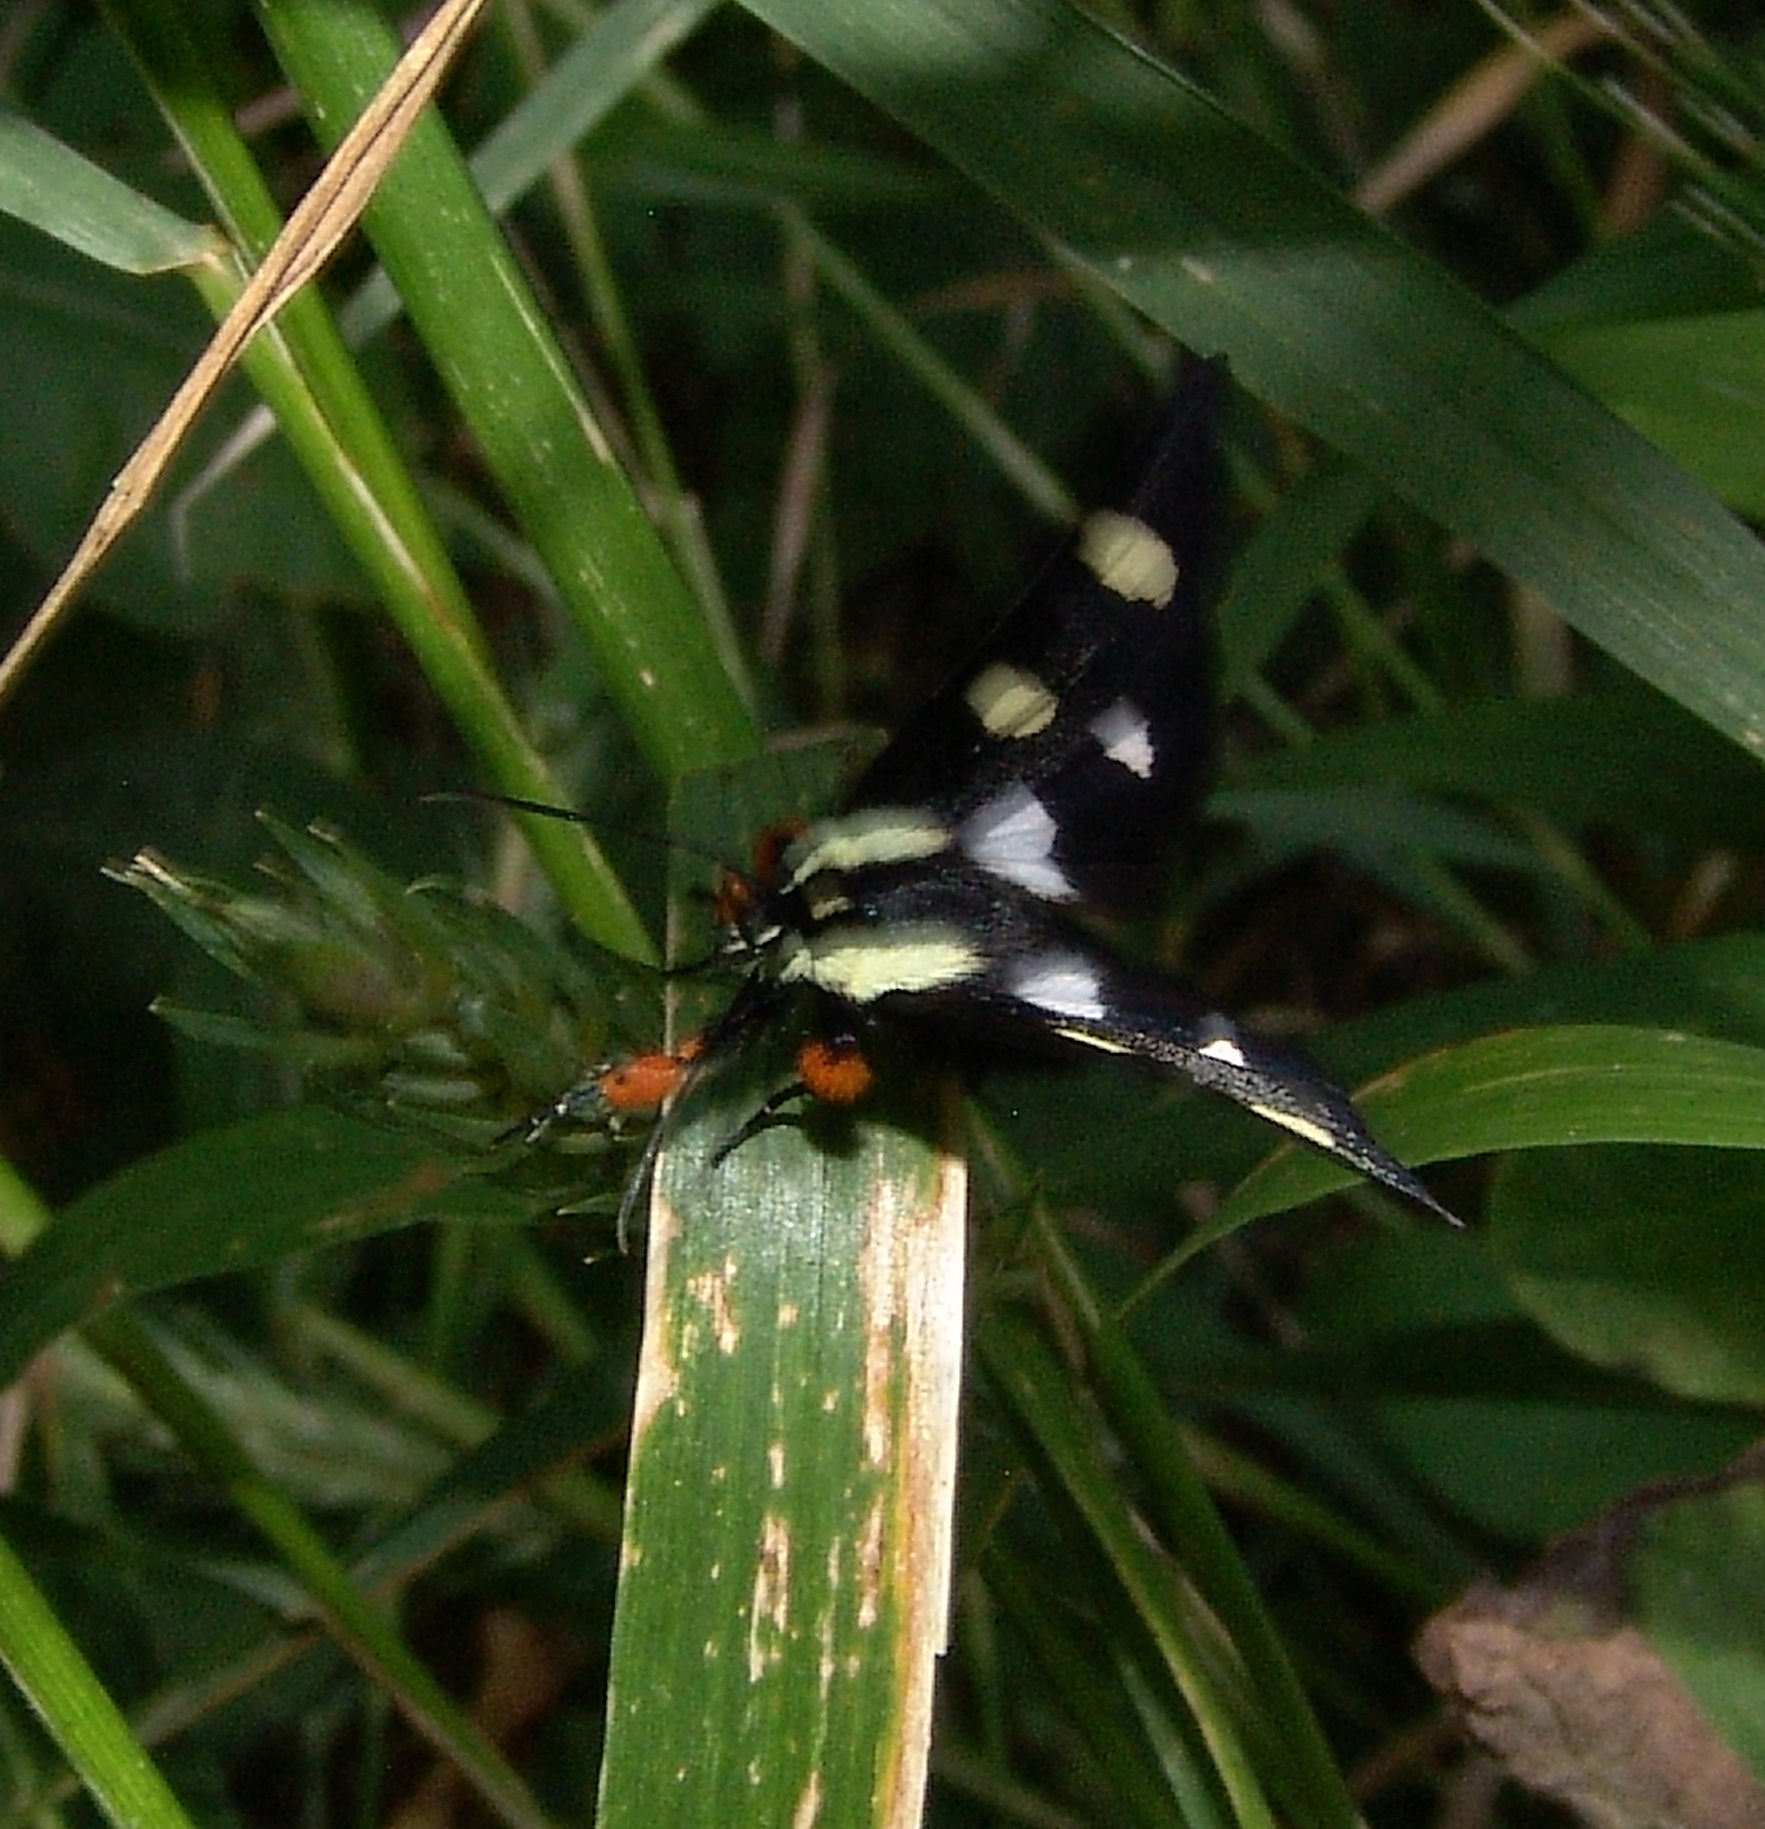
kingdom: Animalia
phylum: Arthropoda
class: Insecta
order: Lepidoptera
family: Noctuidae
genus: Alypia
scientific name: Alypia octomaculata
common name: Eight-spotted forester
